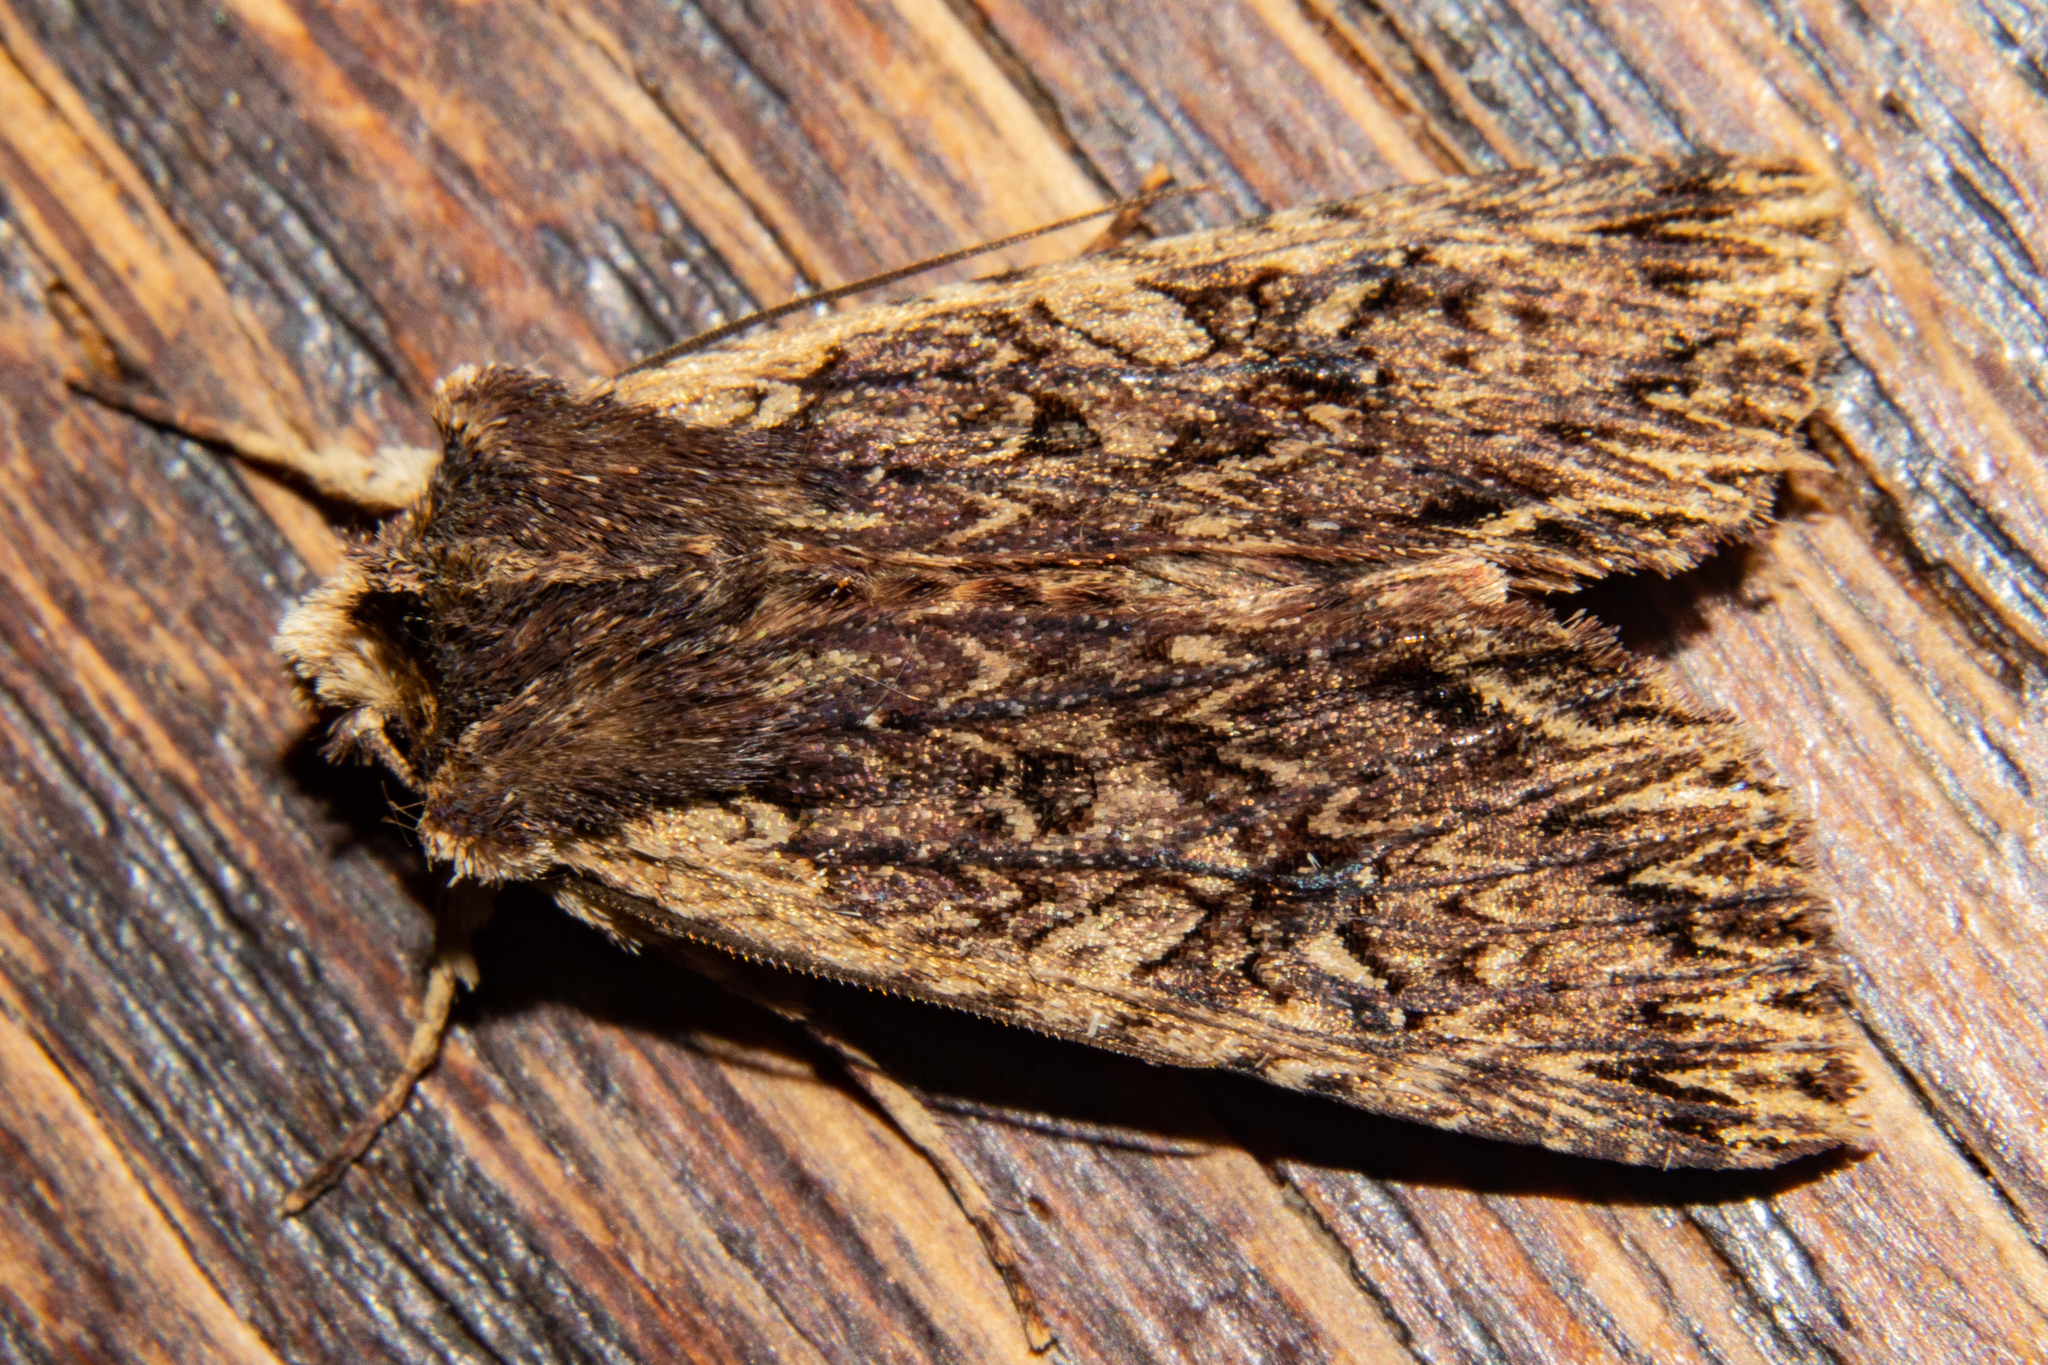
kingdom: Animalia
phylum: Arthropoda
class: Insecta
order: Lepidoptera
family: Noctuidae
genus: Meterana
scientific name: Meterana alcyone
